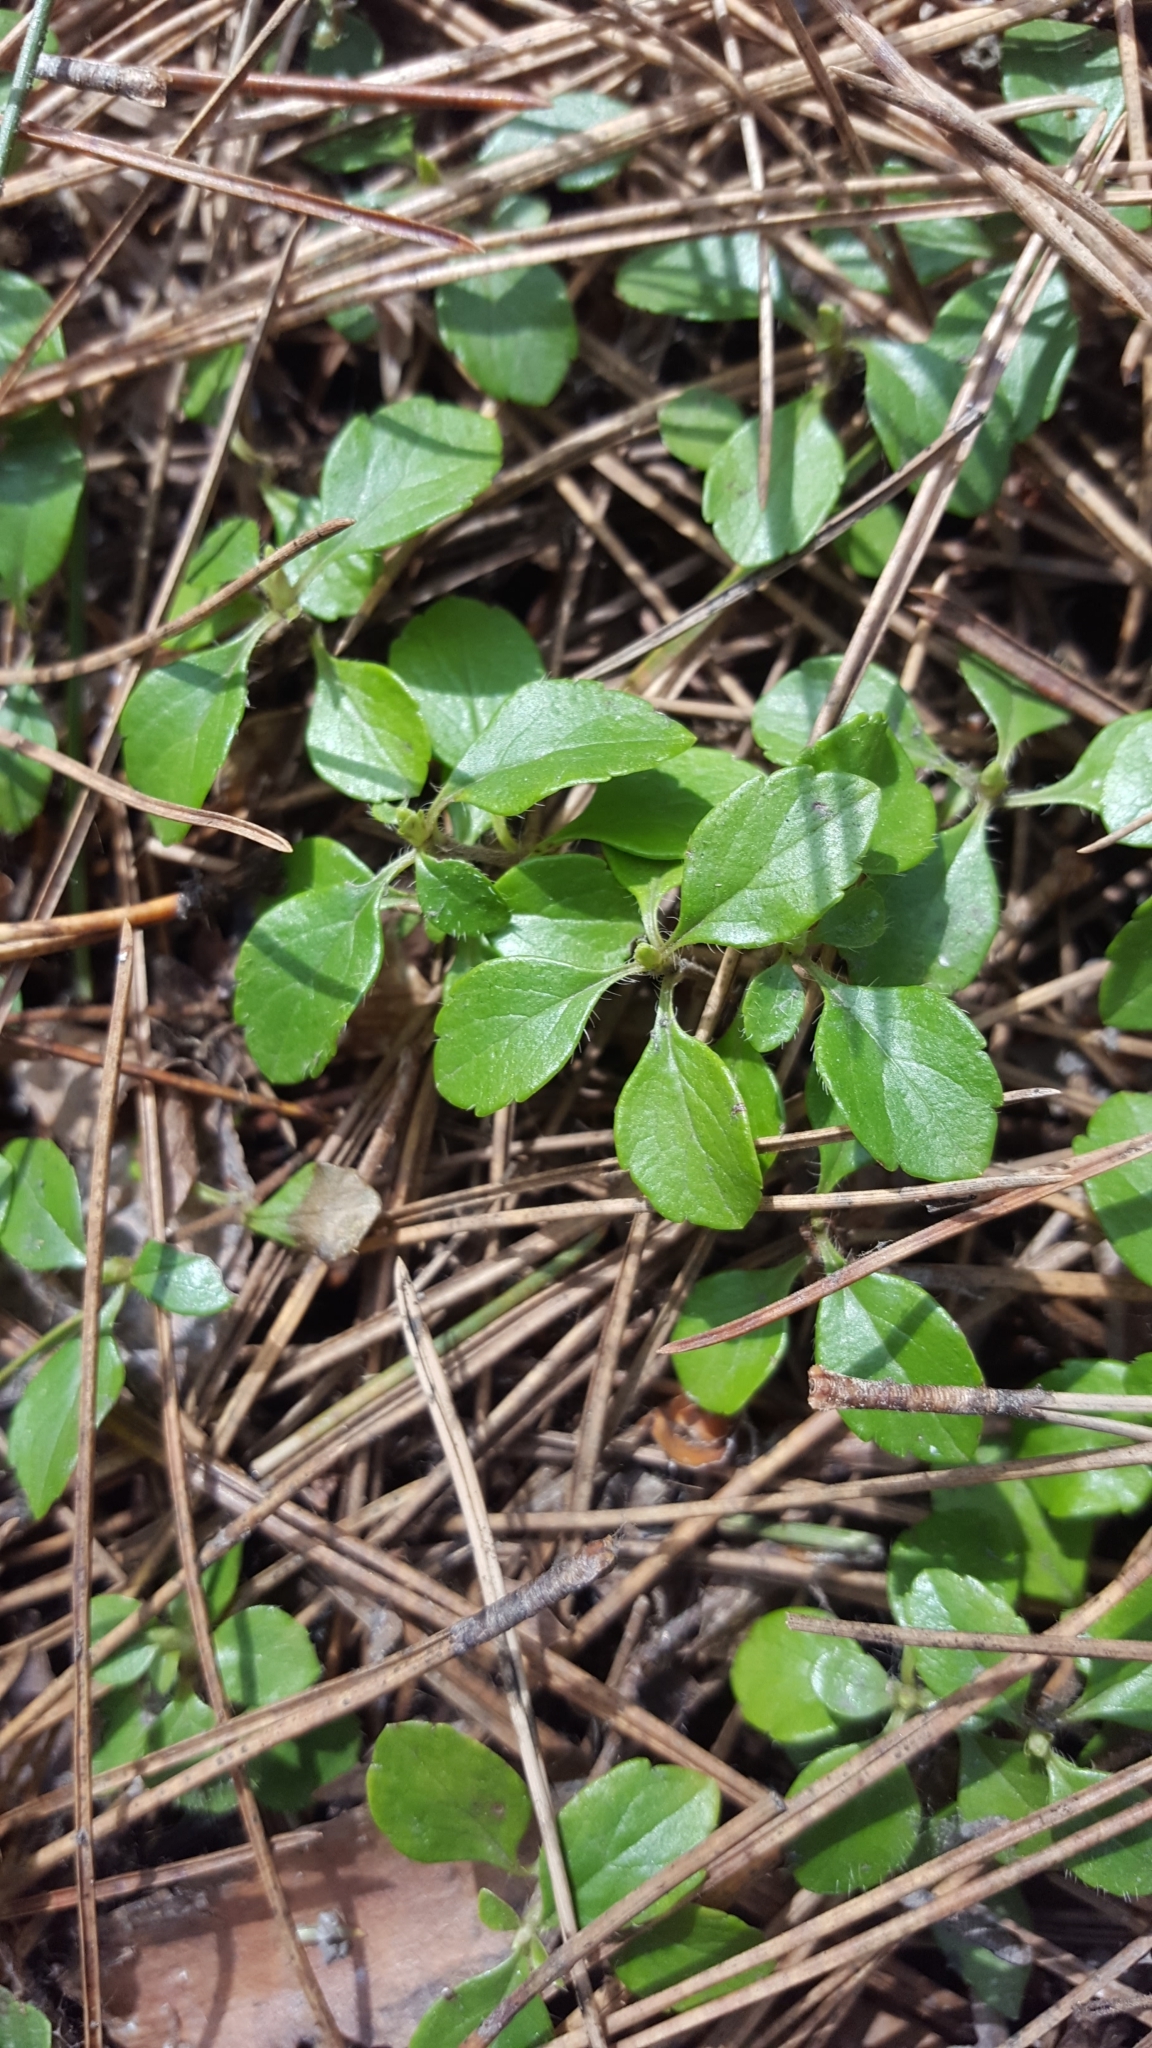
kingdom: Plantae
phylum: Tracheophyta
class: Magnoliopsida
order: Dipsacales
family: Caprifoliaceae
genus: Linnaea
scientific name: Linnaea borealis
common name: Twinflower
